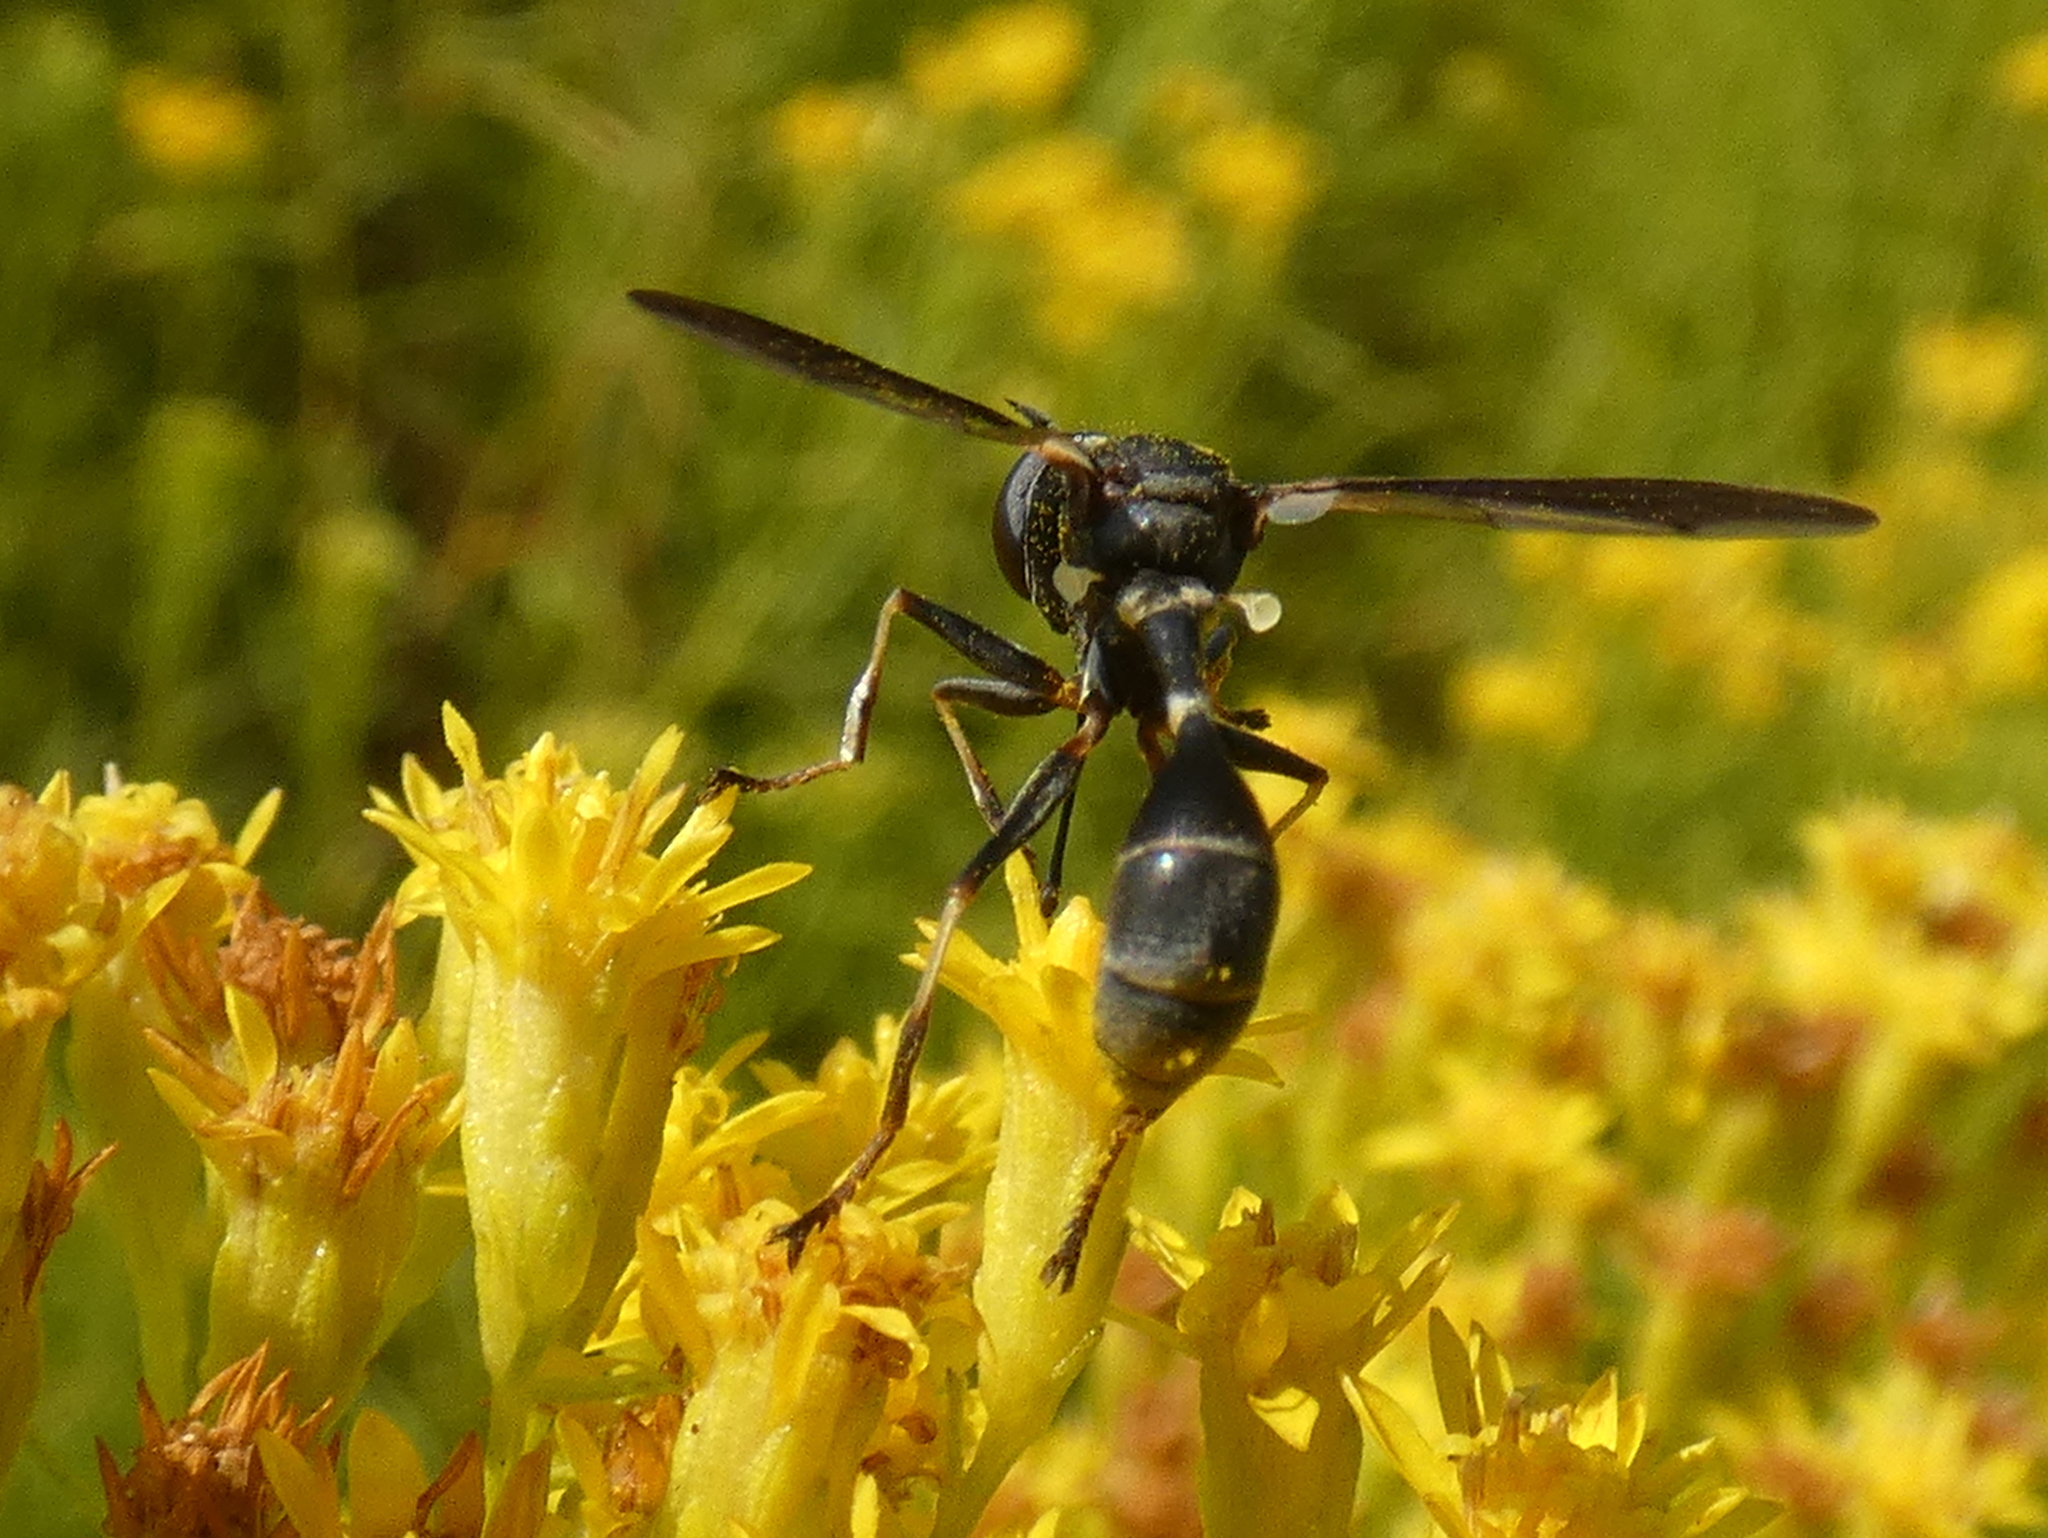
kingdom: Animalia
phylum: Arthropoda
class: Insecta
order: Diptera
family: Conopidae
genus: Physocephala
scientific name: Physocephala tibialis
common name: Common eastern physocephala
